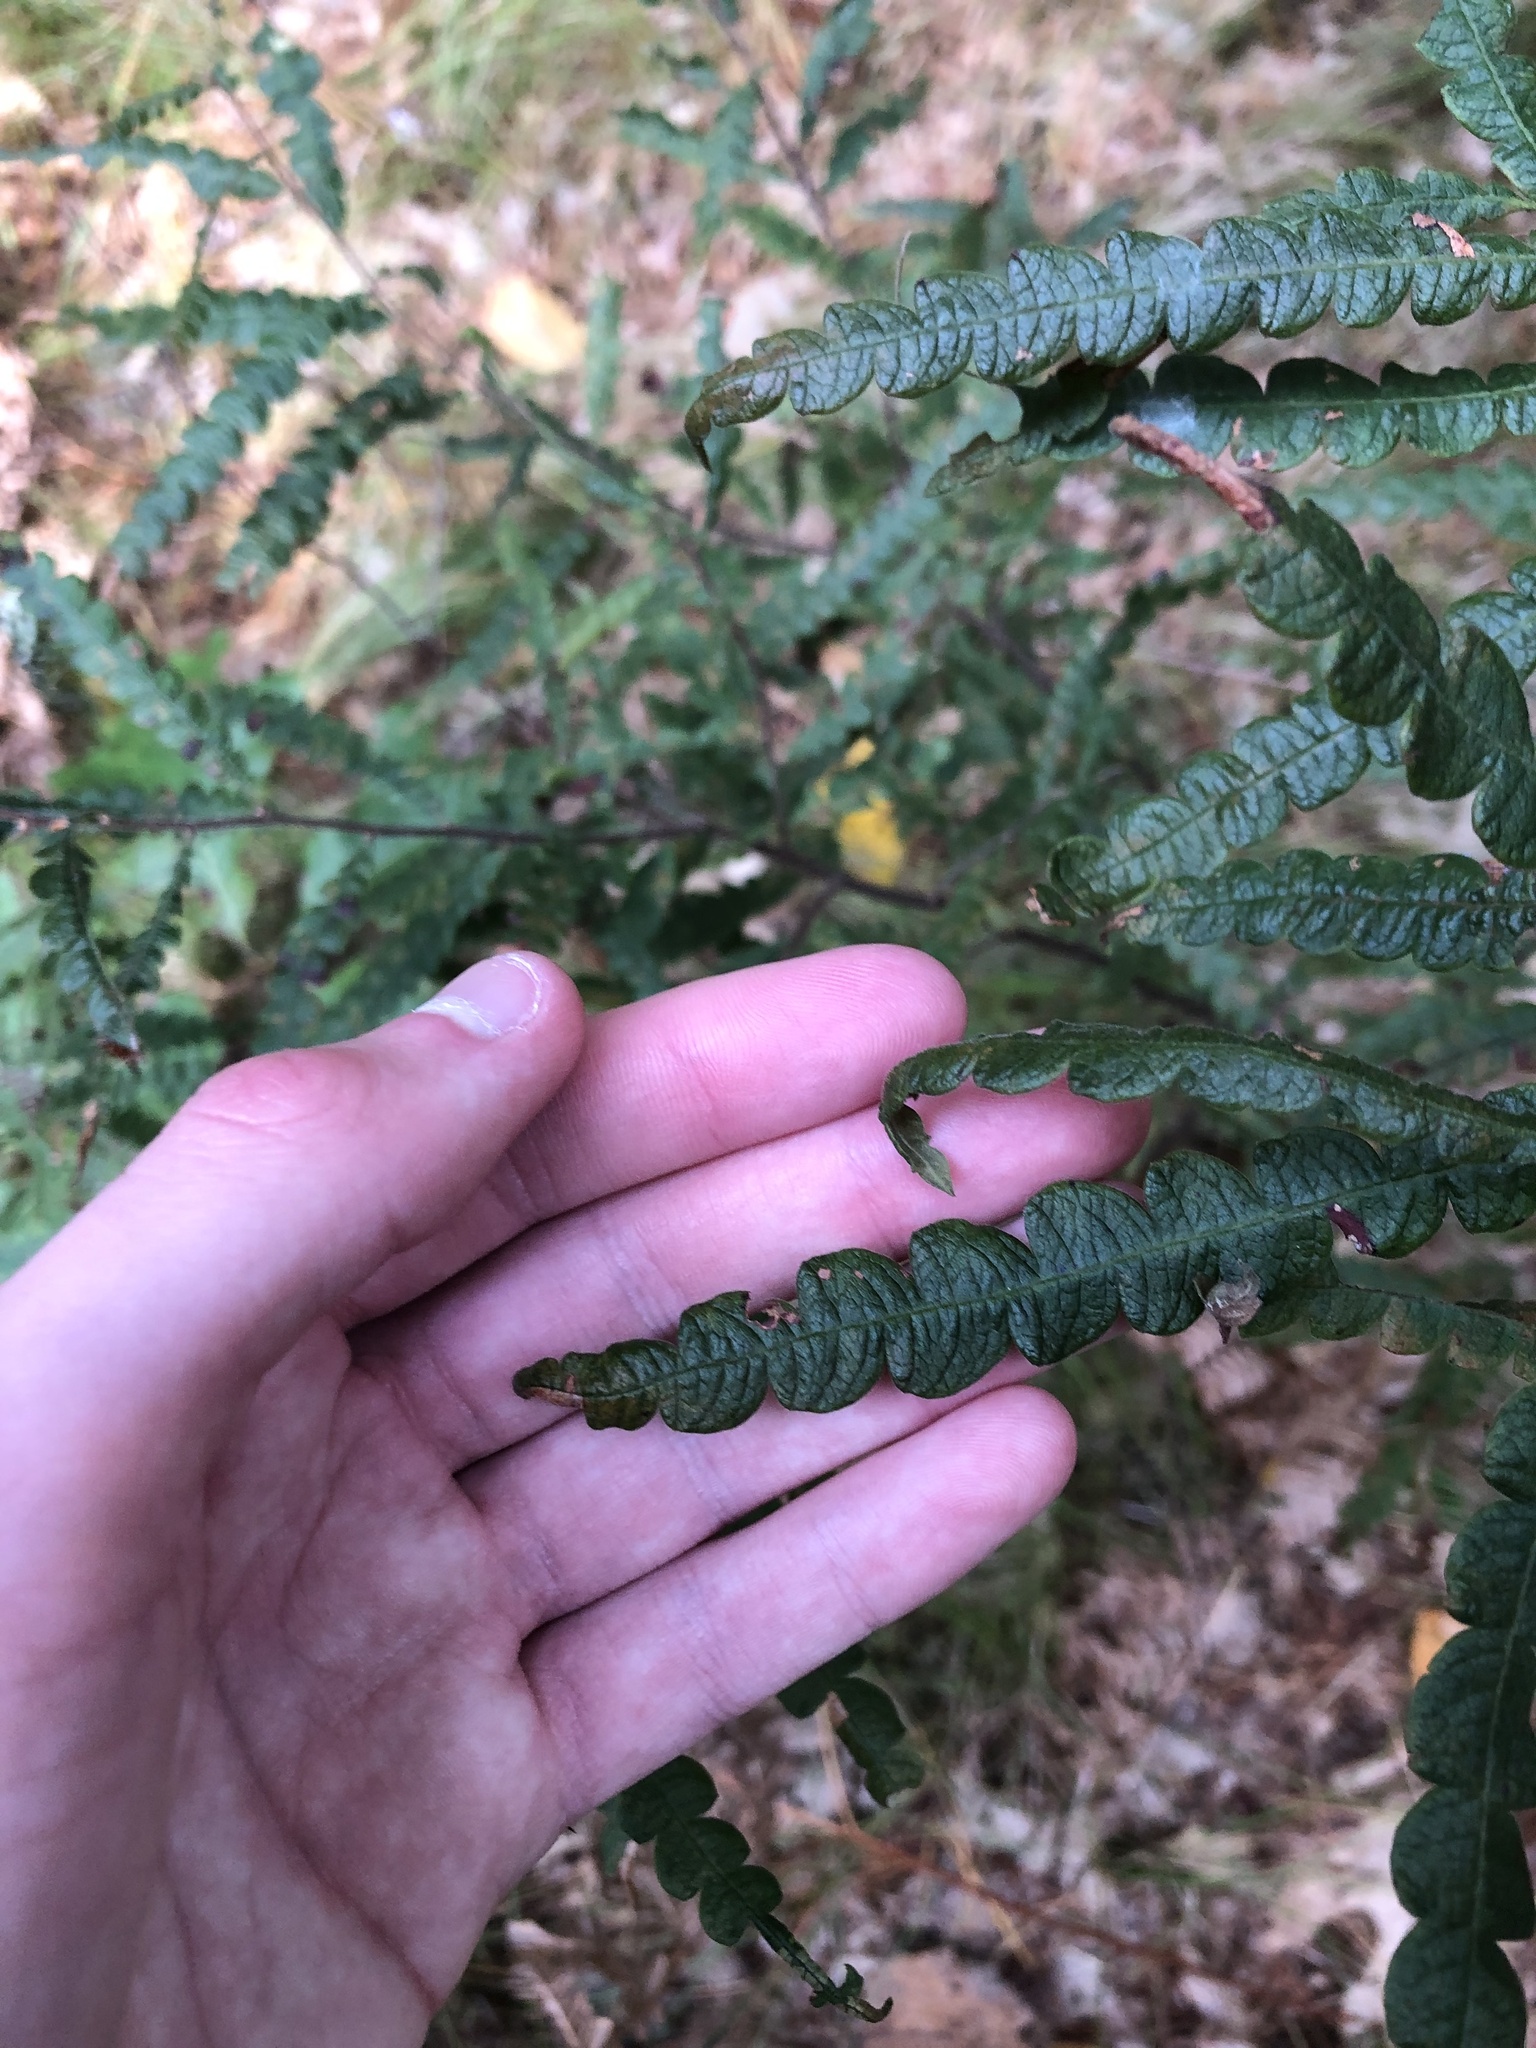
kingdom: Plantae
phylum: Tracheophyta
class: Magnoliopsida
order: Fagales
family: Myricaceae
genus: Comptonia
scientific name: Comptonia peregrina
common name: Sweet-fern
